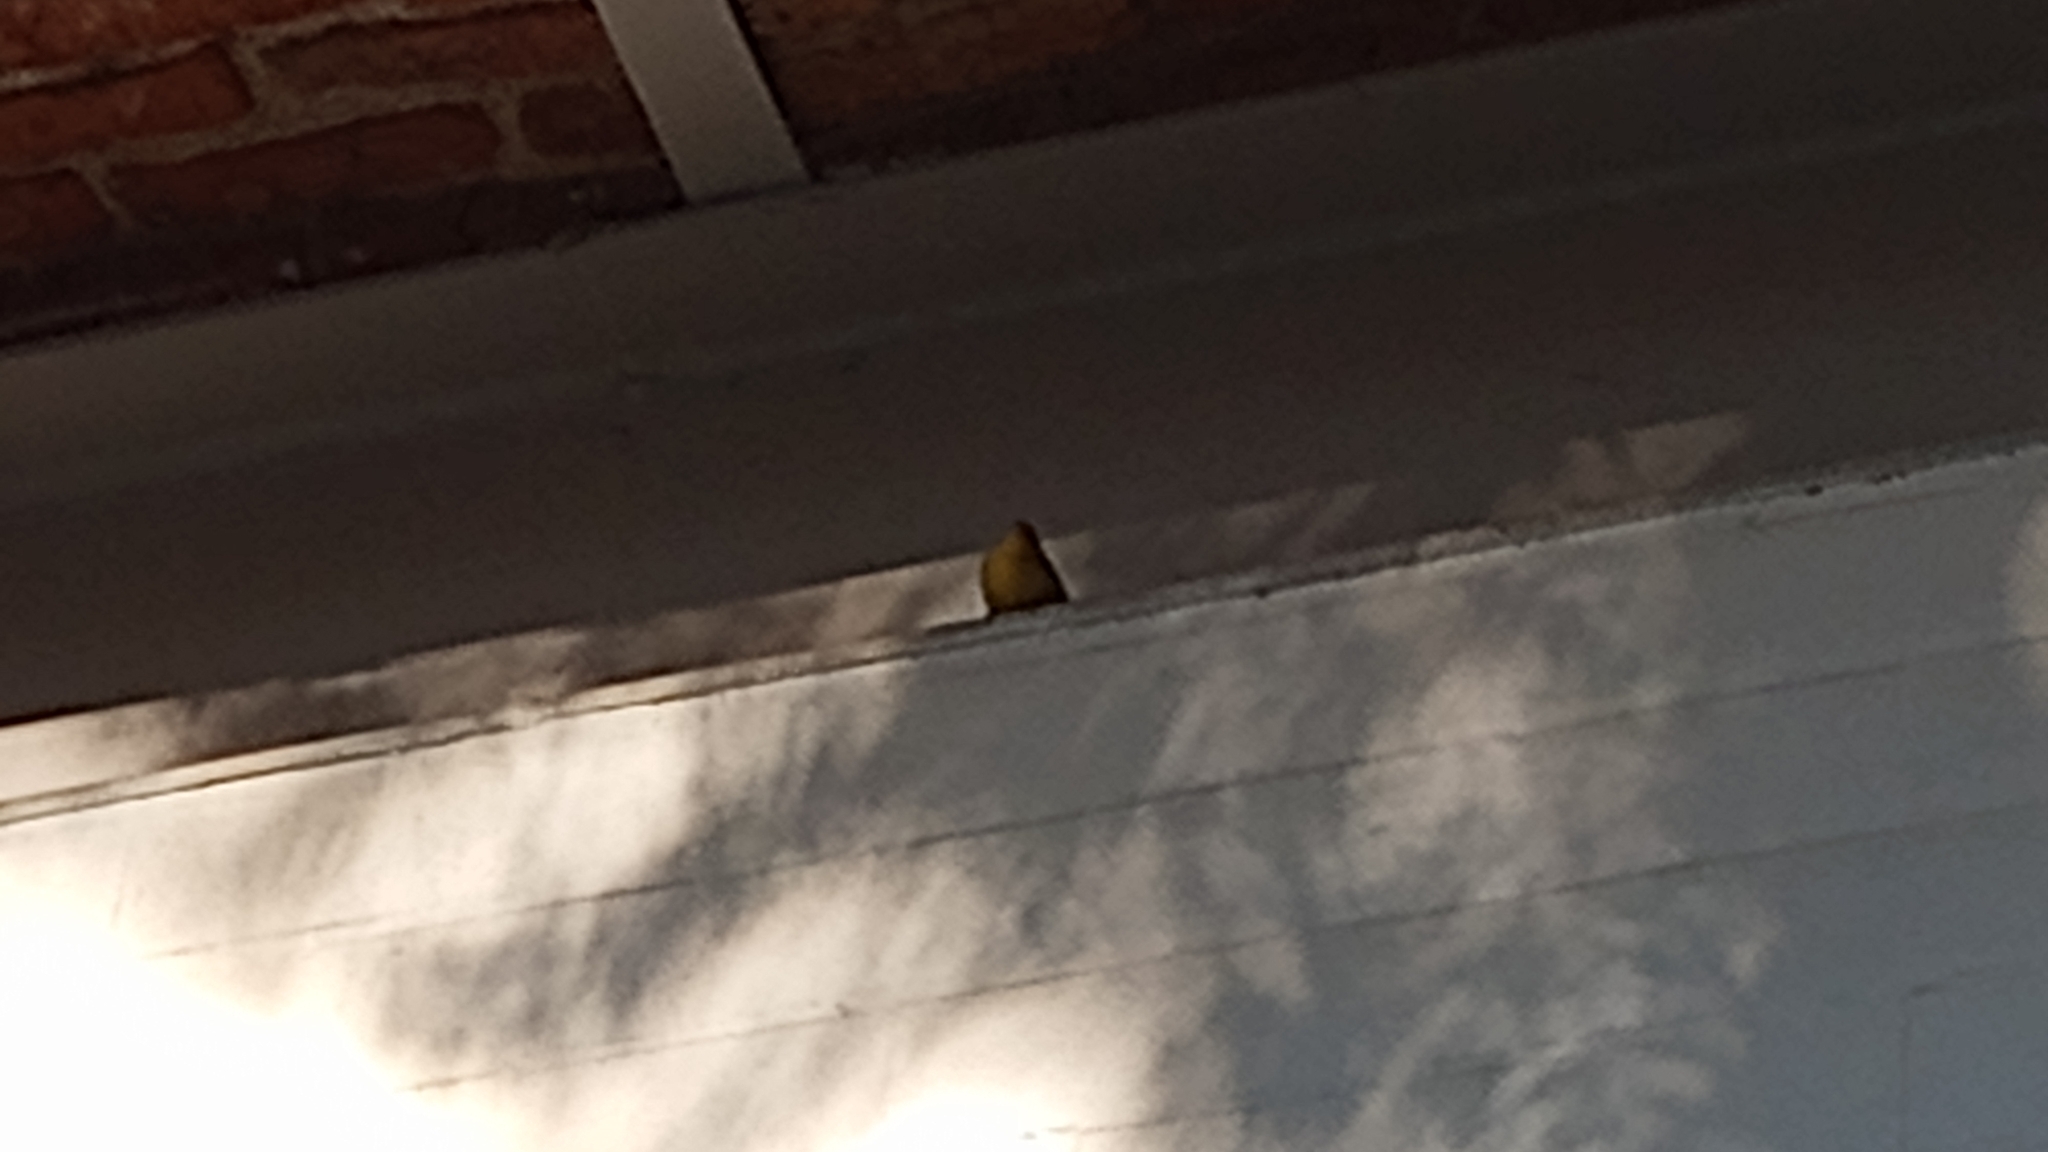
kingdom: Animalia
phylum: Chordata
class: Aves
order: Passeriformes
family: Parulidae
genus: Setophaga
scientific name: Setophaga petechia
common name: Yellow warbler
